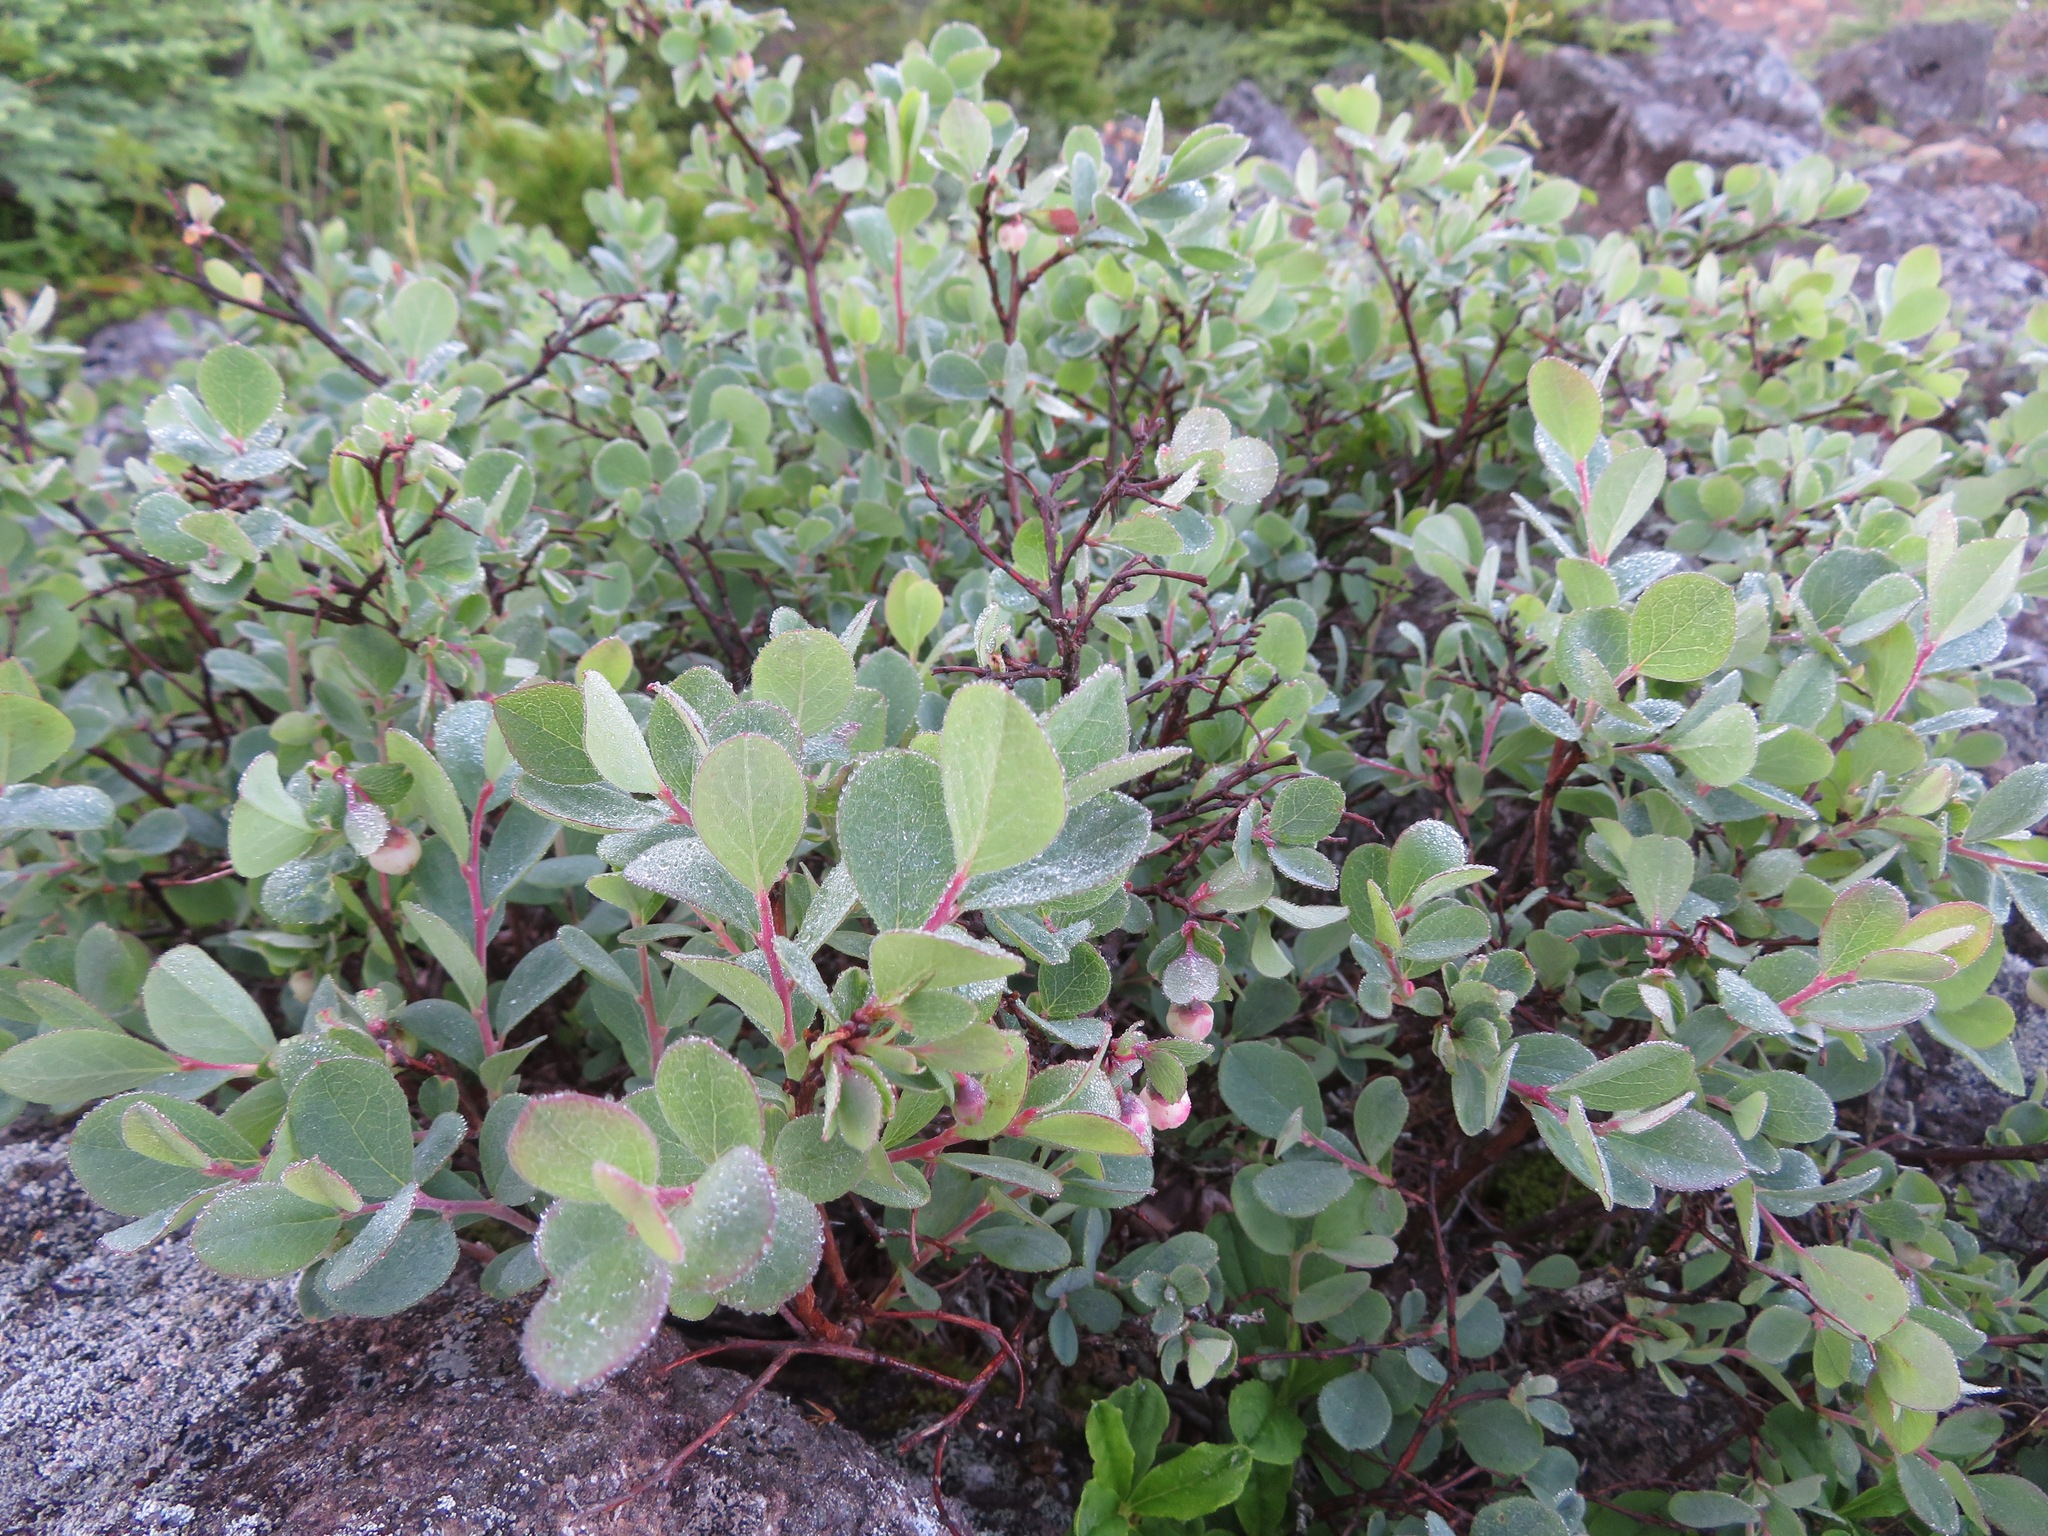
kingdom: Plantae
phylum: Tracheophyta
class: Magnoliopsida
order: Ericales
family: Ericaceae
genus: Vaccinium
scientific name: Vaccinium uliginosum
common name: Bog bilberry
